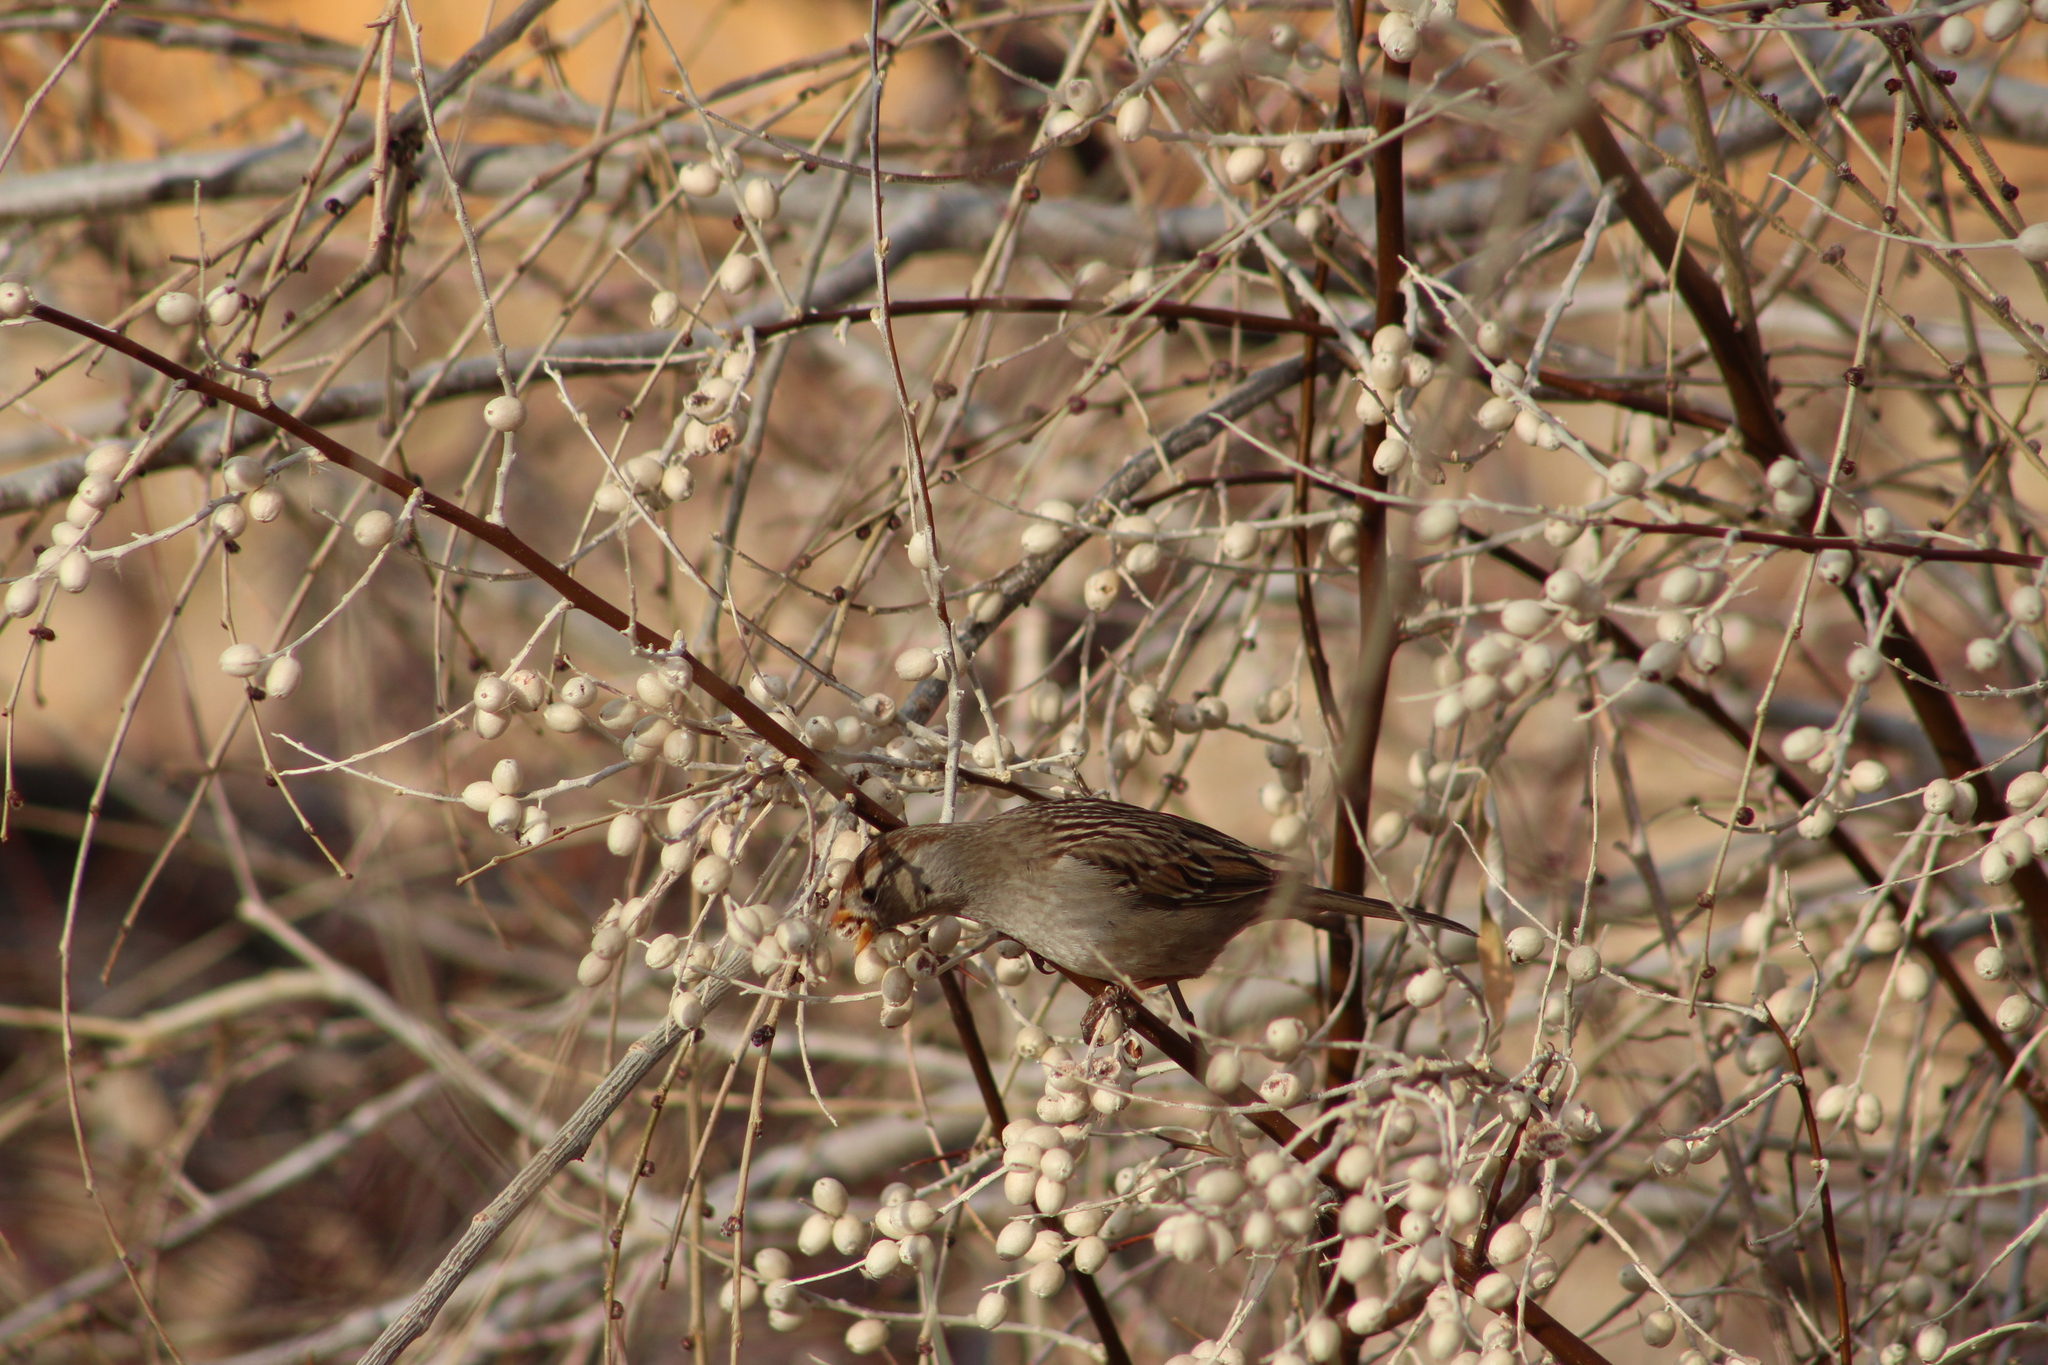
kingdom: Animalia
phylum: Chordata
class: Aves
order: Passeriformes
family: Passerellidae
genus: Zonotrichia
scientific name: Zonotrichia leucophrys
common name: White-crowned sparrow
